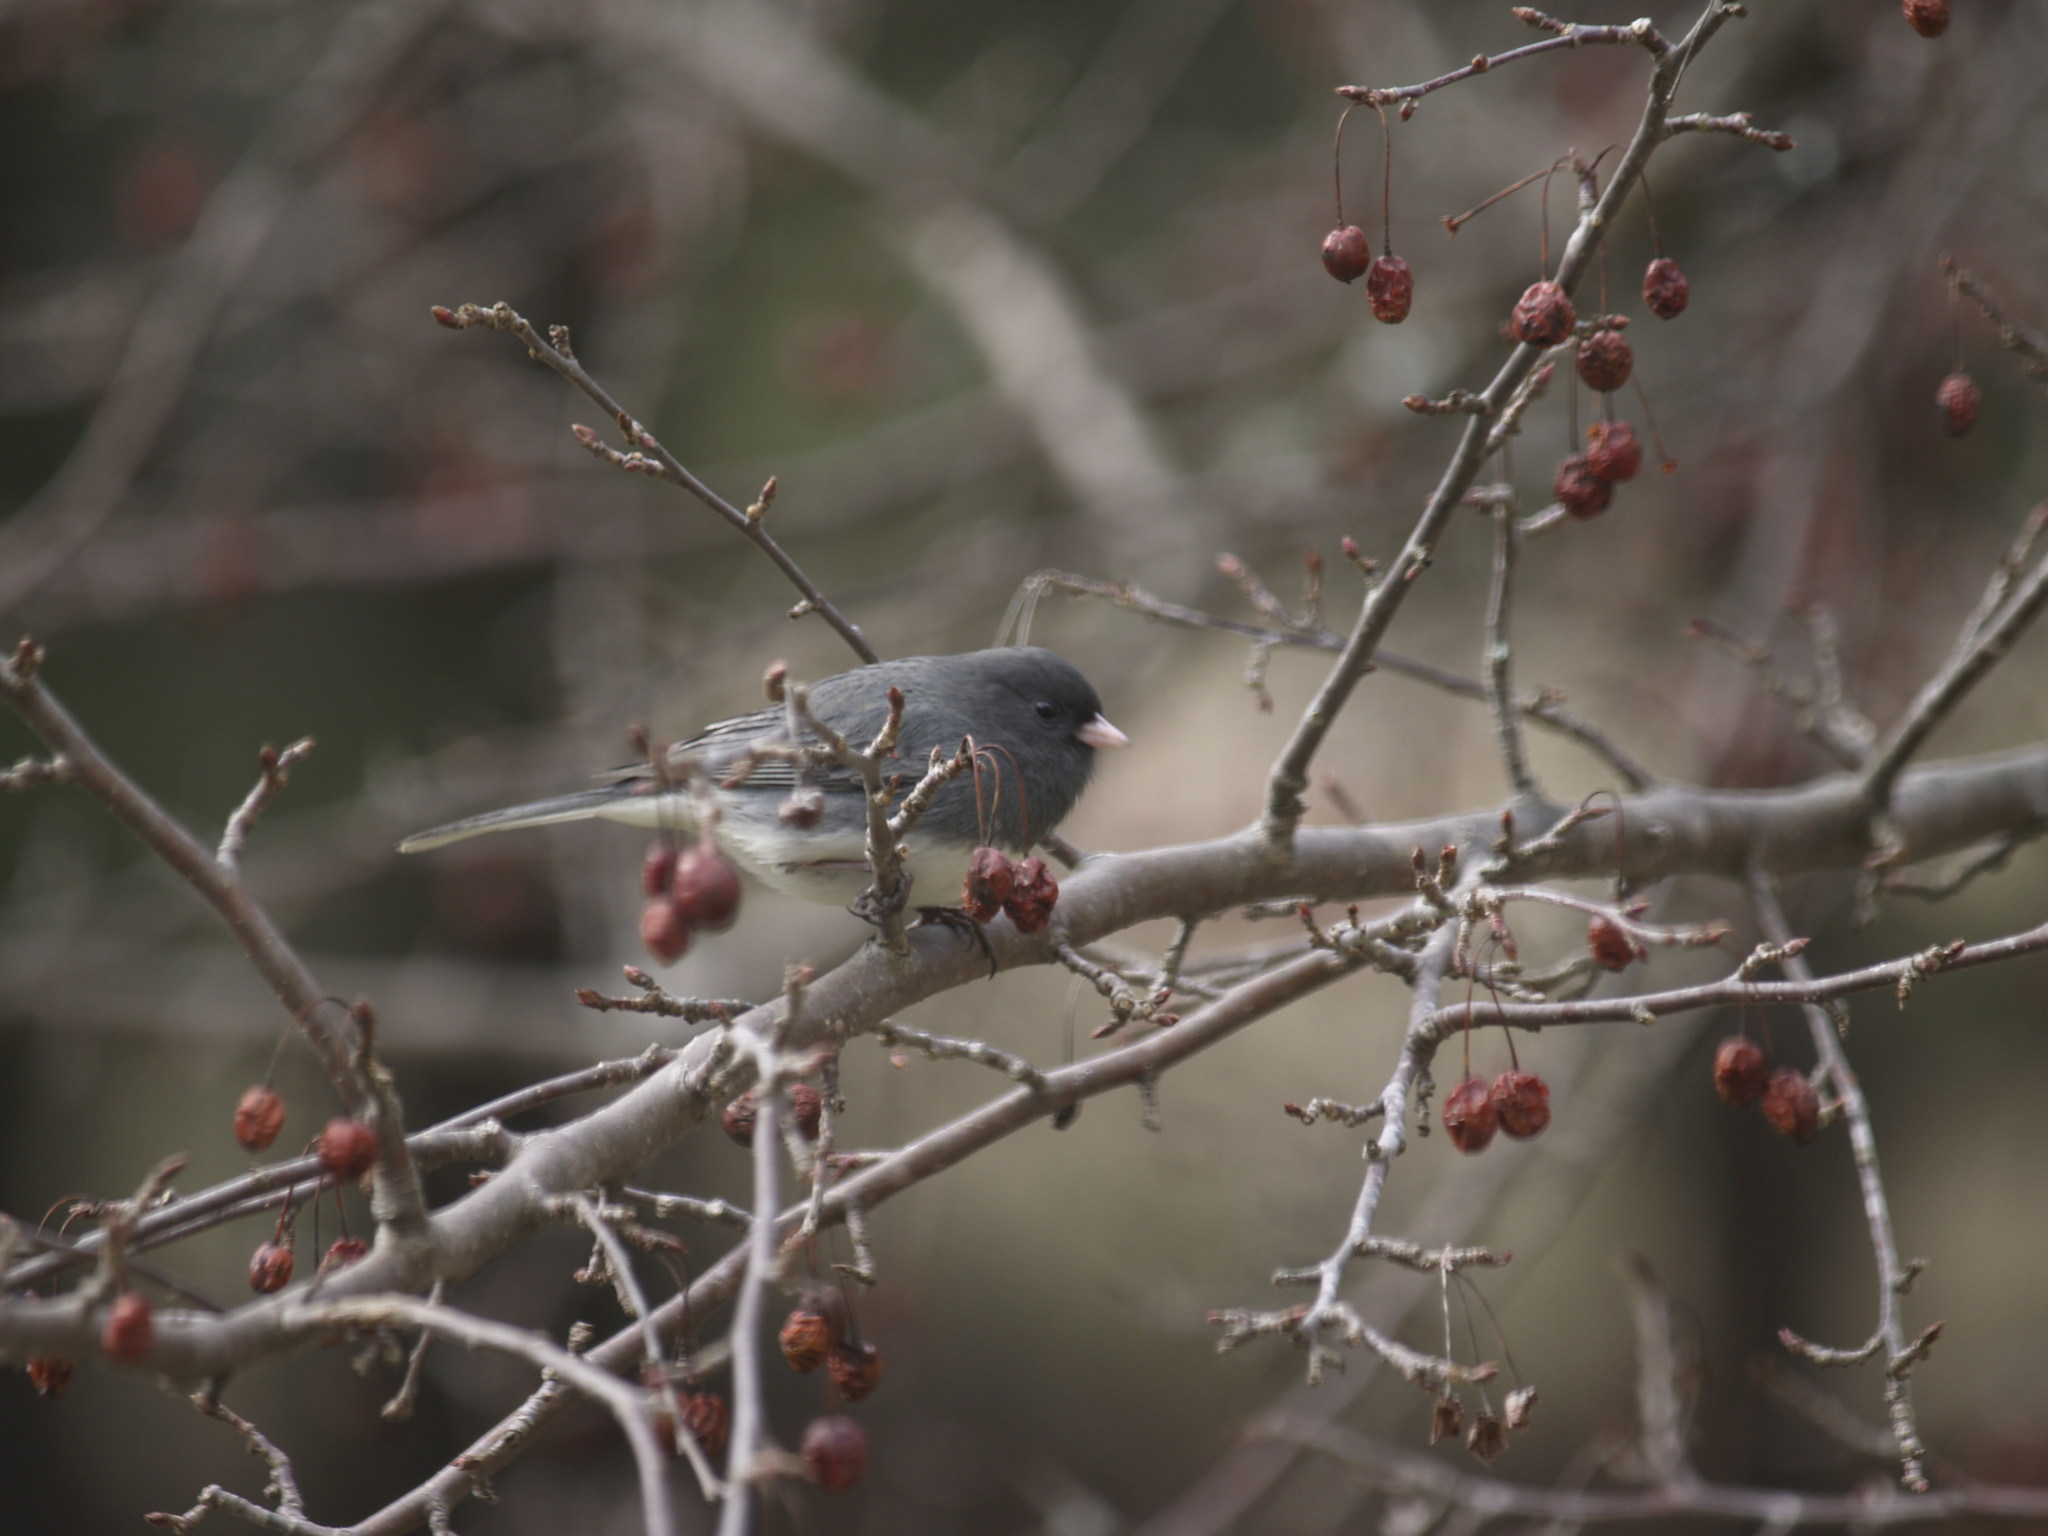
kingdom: Animalia
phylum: Chordata
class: Aves
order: Passeriformes
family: Passerellidae
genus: Junco
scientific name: Junco hyemalis
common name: Dark-eyed junco
